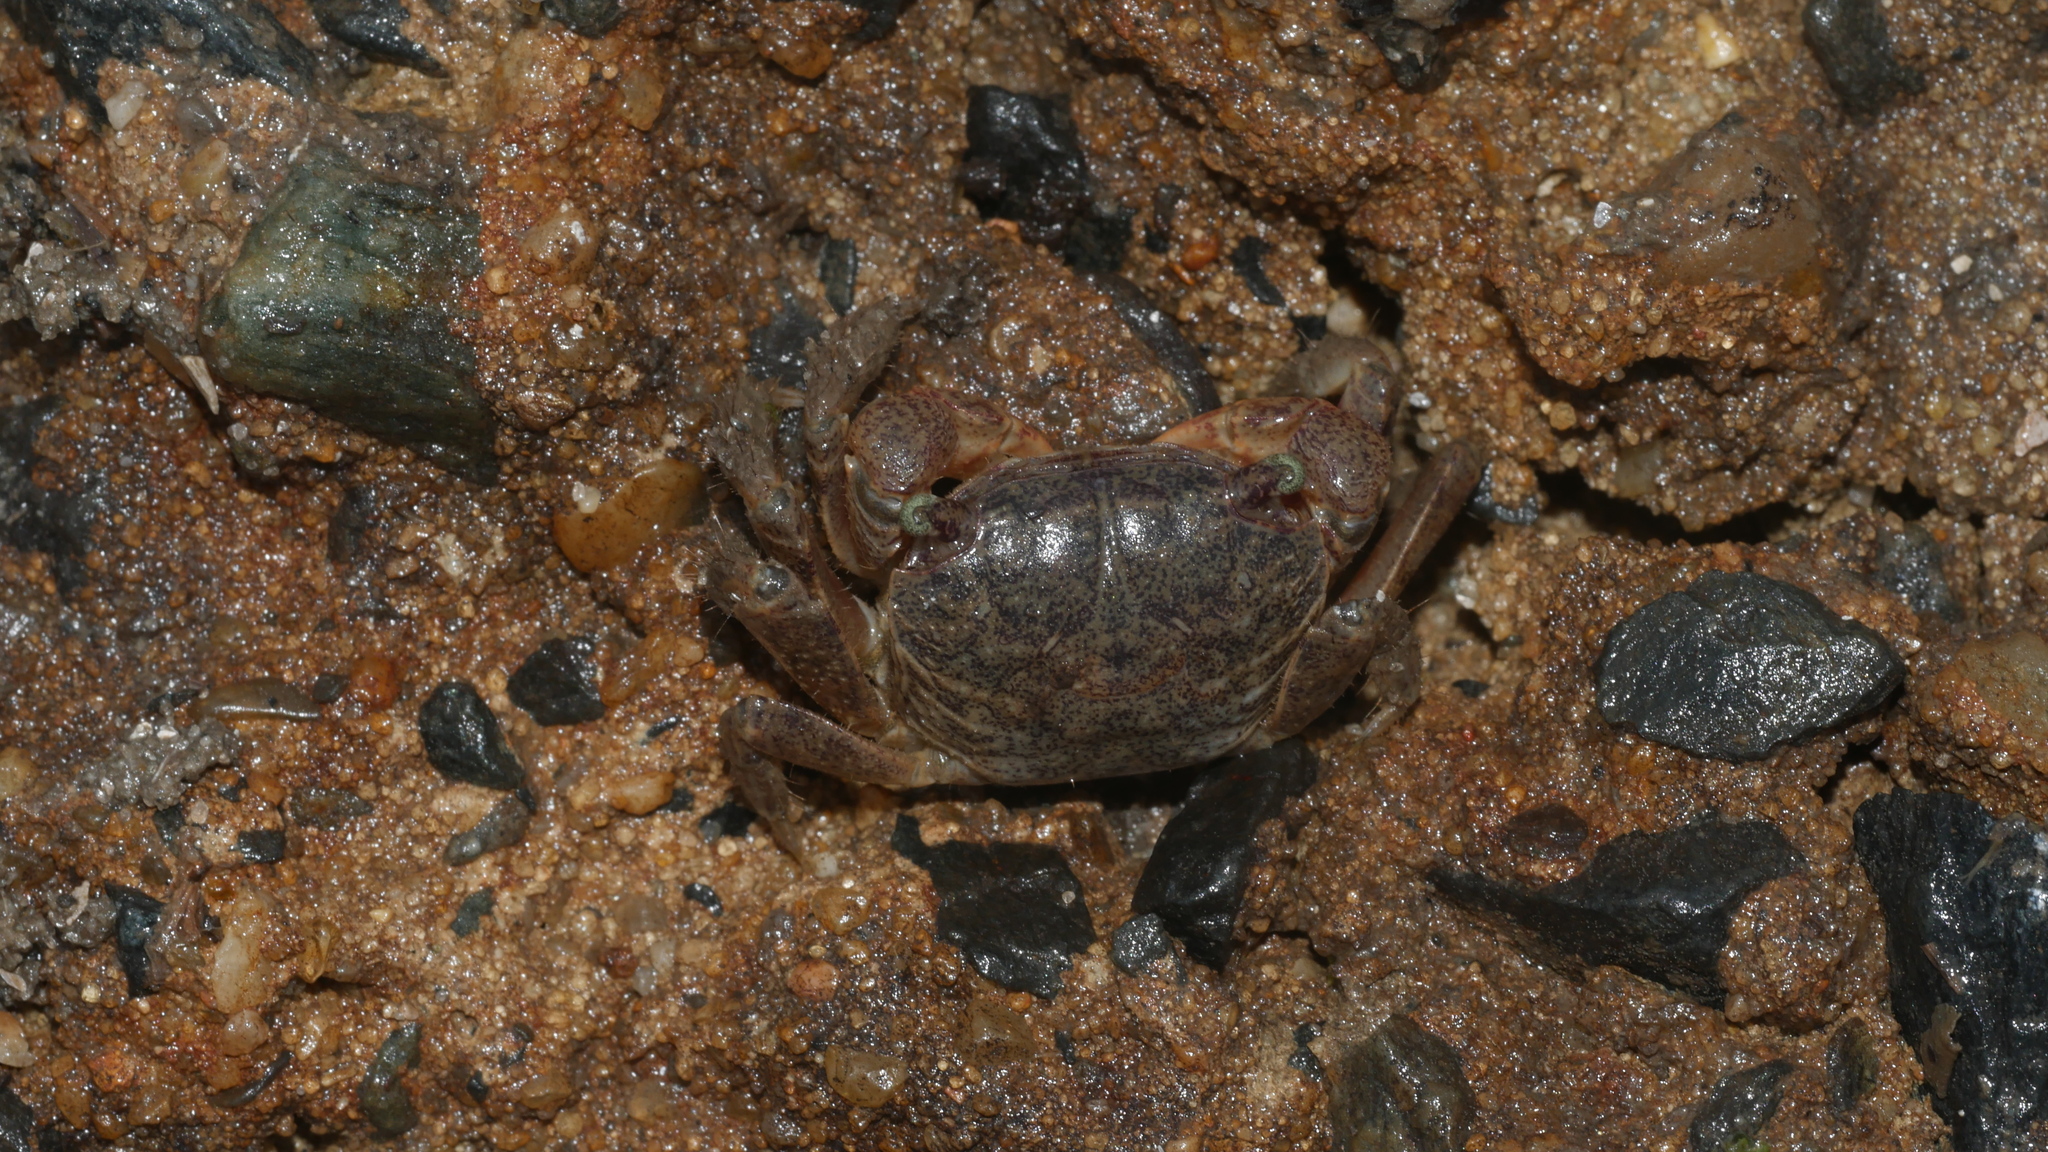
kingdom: Animalia
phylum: Arthropoda
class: Malacostraca
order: Decapoda
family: Sesarmidae
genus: Sesarma
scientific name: Sesarma reticulatum
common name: Heavy marsh crab
